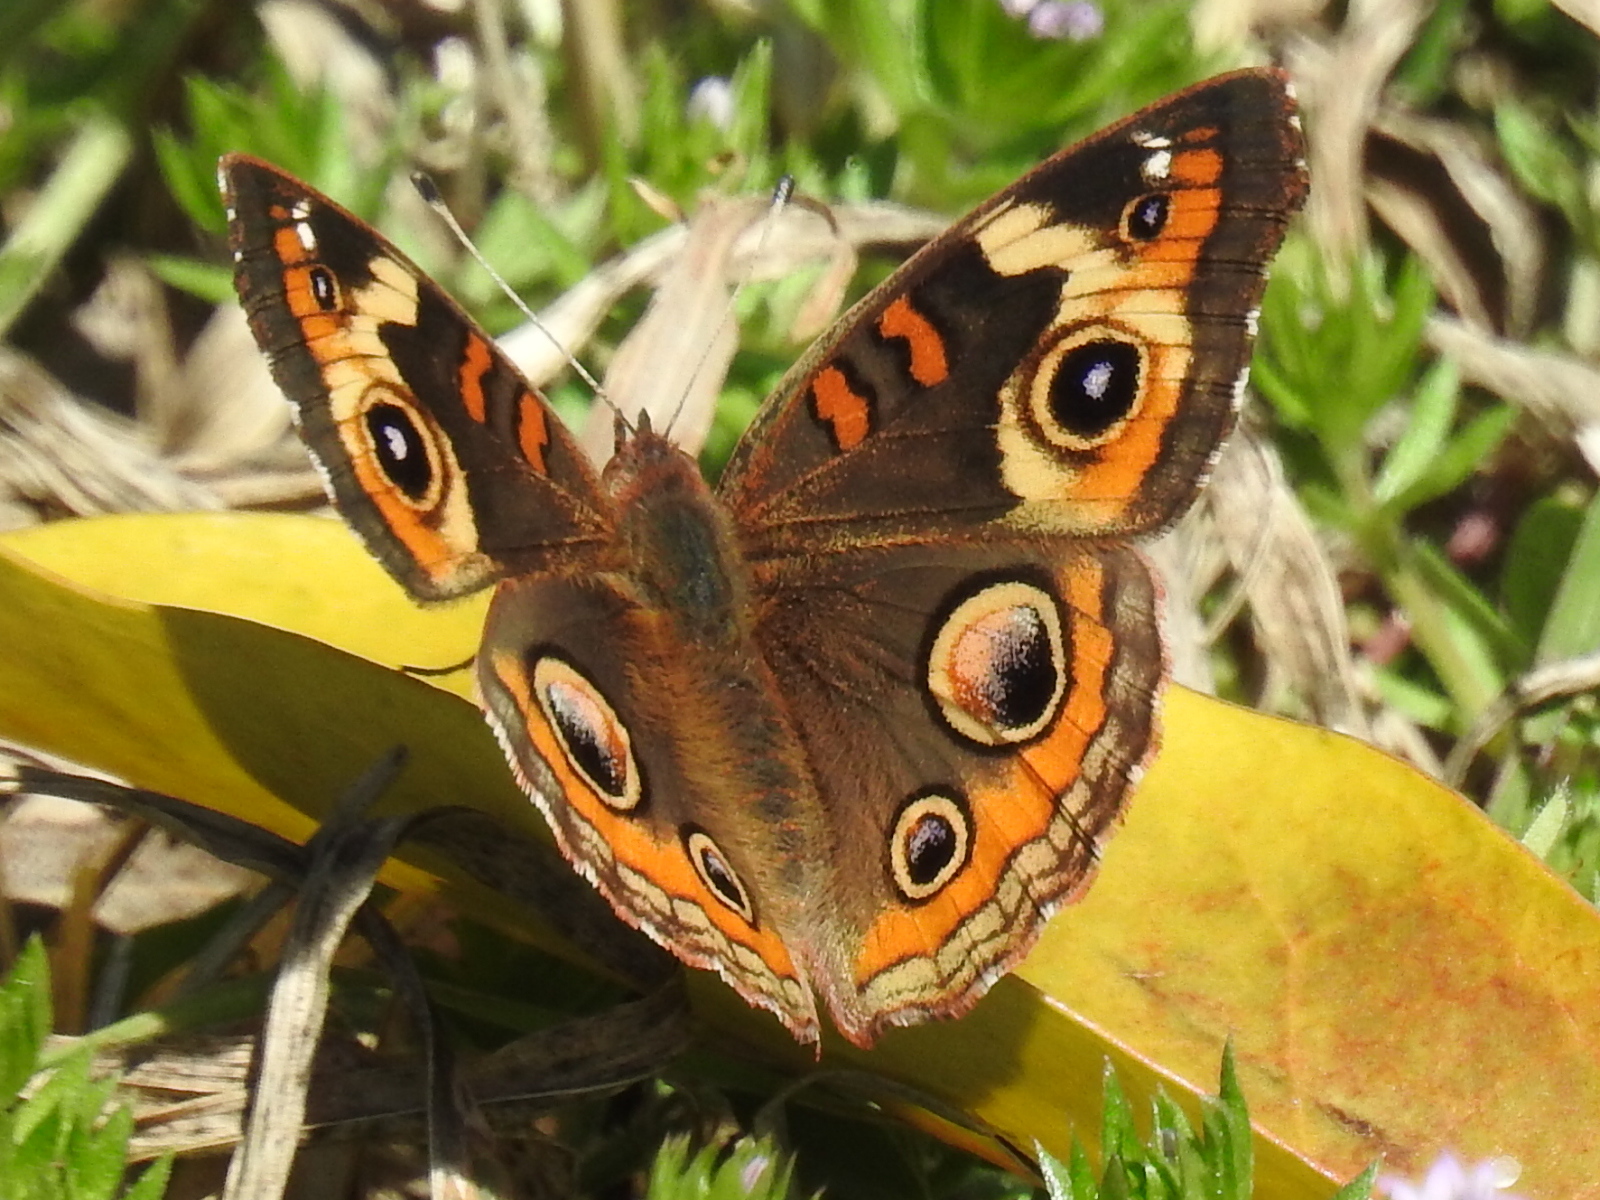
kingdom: Animalia
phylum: Arthropoda
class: Insecta
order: Lepidoptera
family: Nymphalidae
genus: Junonia
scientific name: Junonia coenia
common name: Common buckeye
